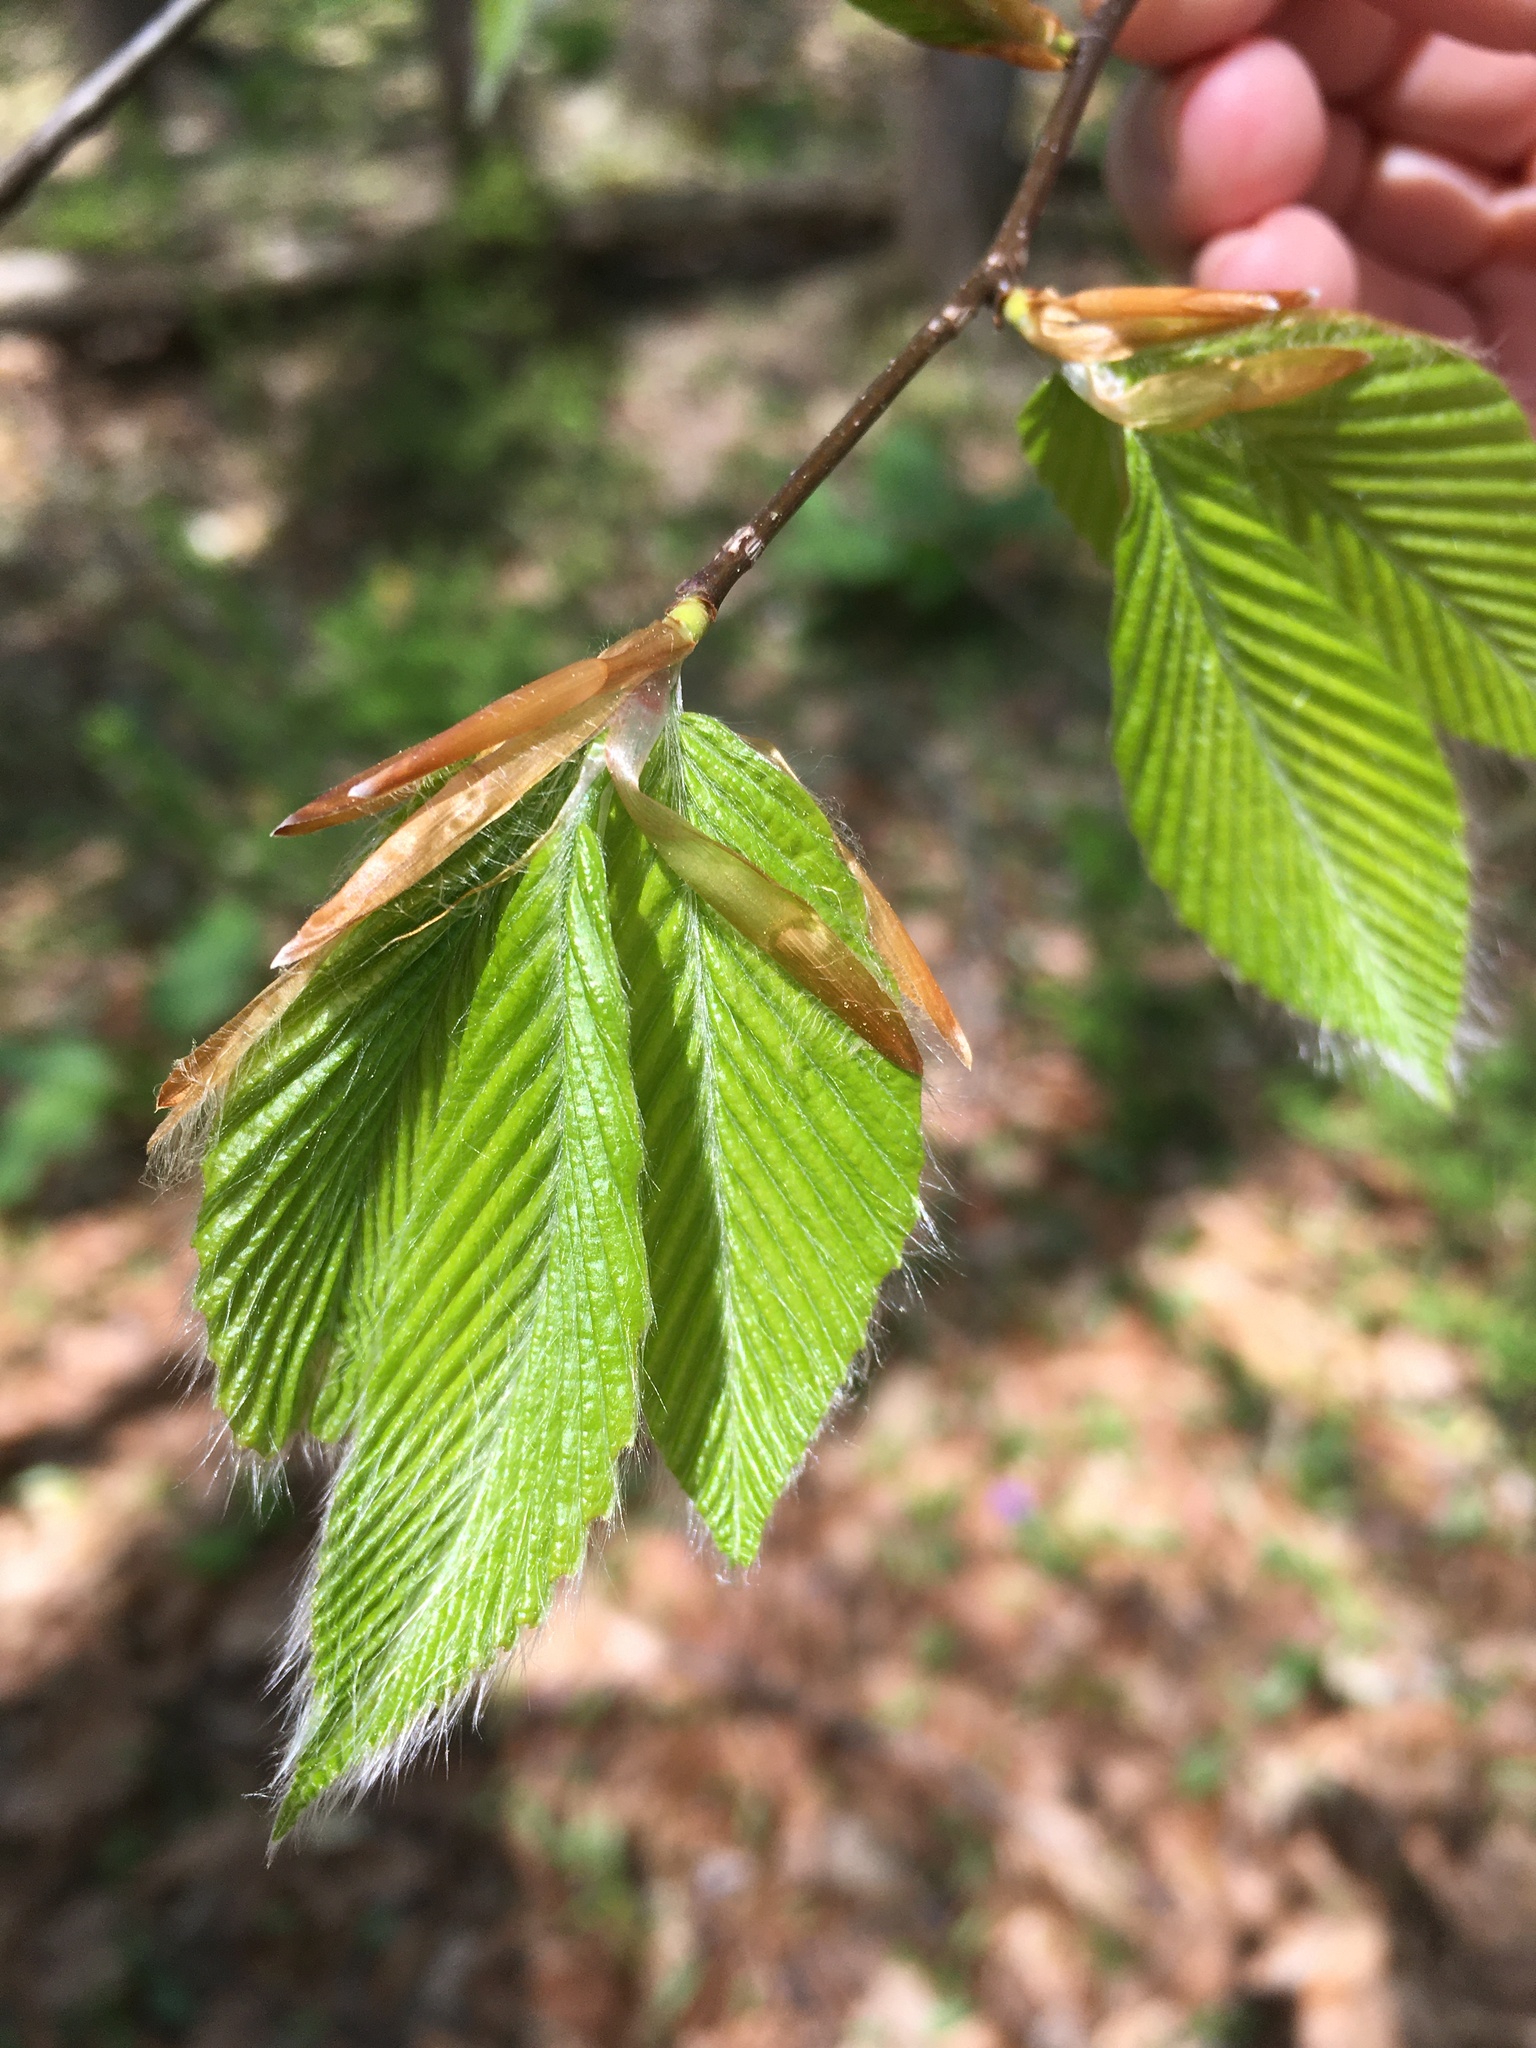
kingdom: Plantae
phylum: Tracheophyta
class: Magnoliopsida
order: Fagales
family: Fagaceae
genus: Fagus
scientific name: Fagus grandifolia
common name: American beech
